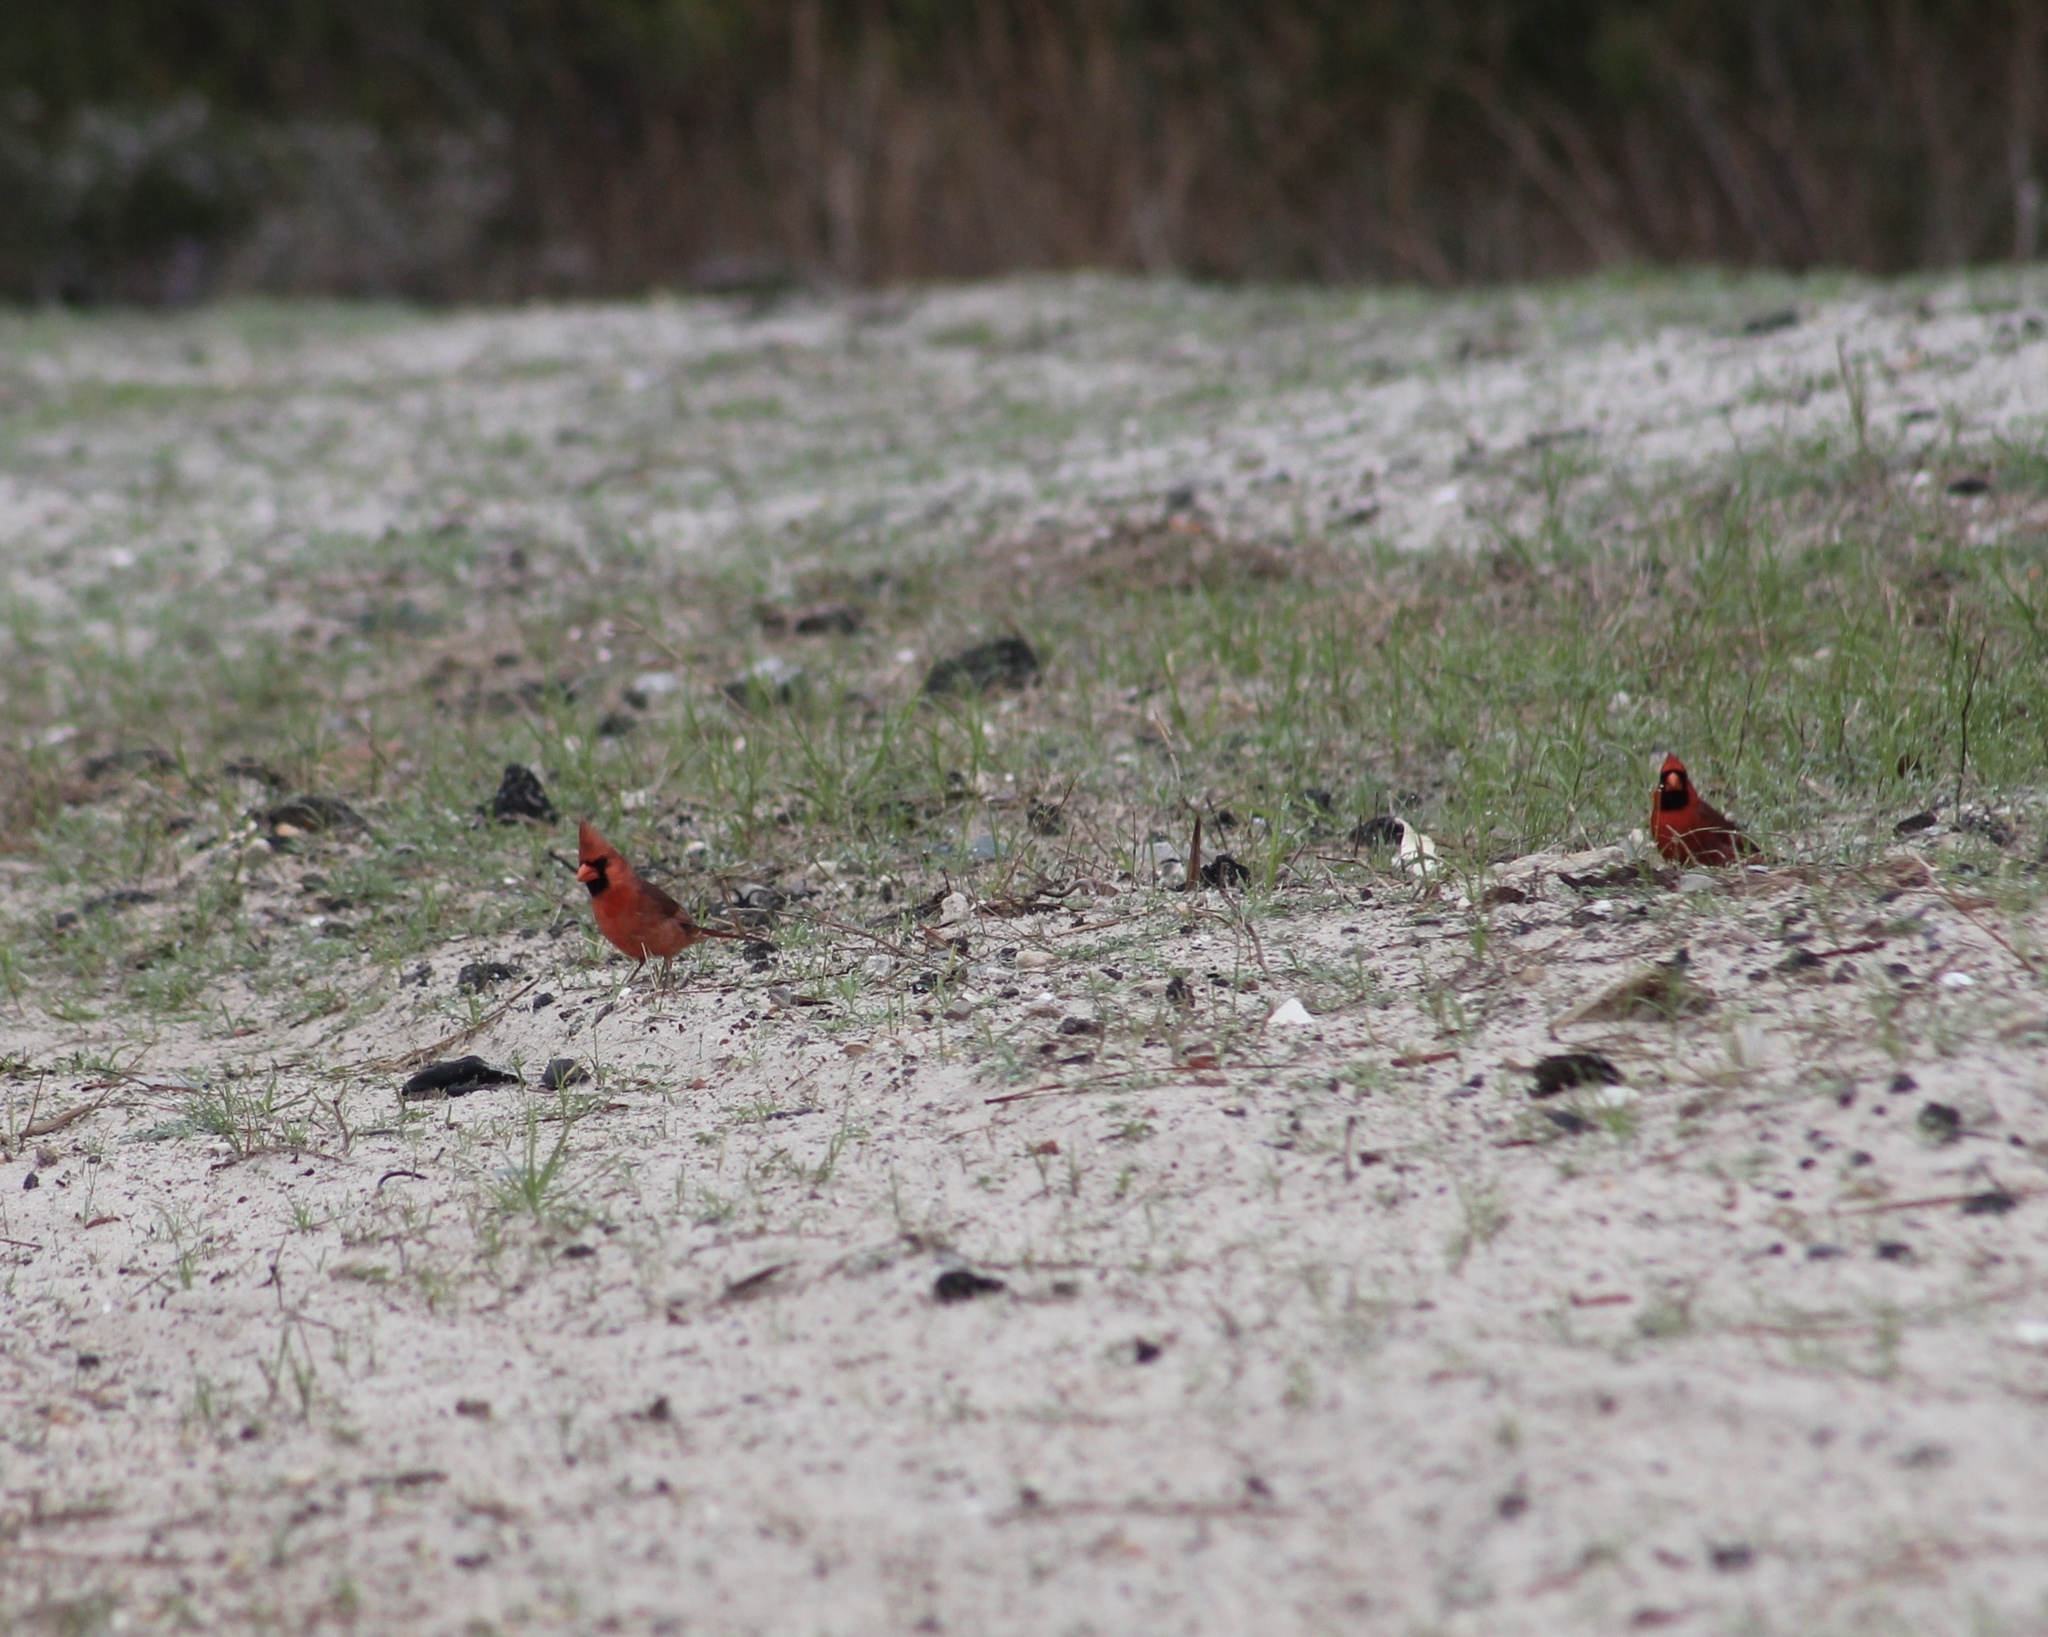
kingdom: Animalia
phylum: Chordata
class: Aves
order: Passeriformes
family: Cardinalidae
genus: Cardinalis
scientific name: Cardinalis cardinalis
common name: Northern cardinal
